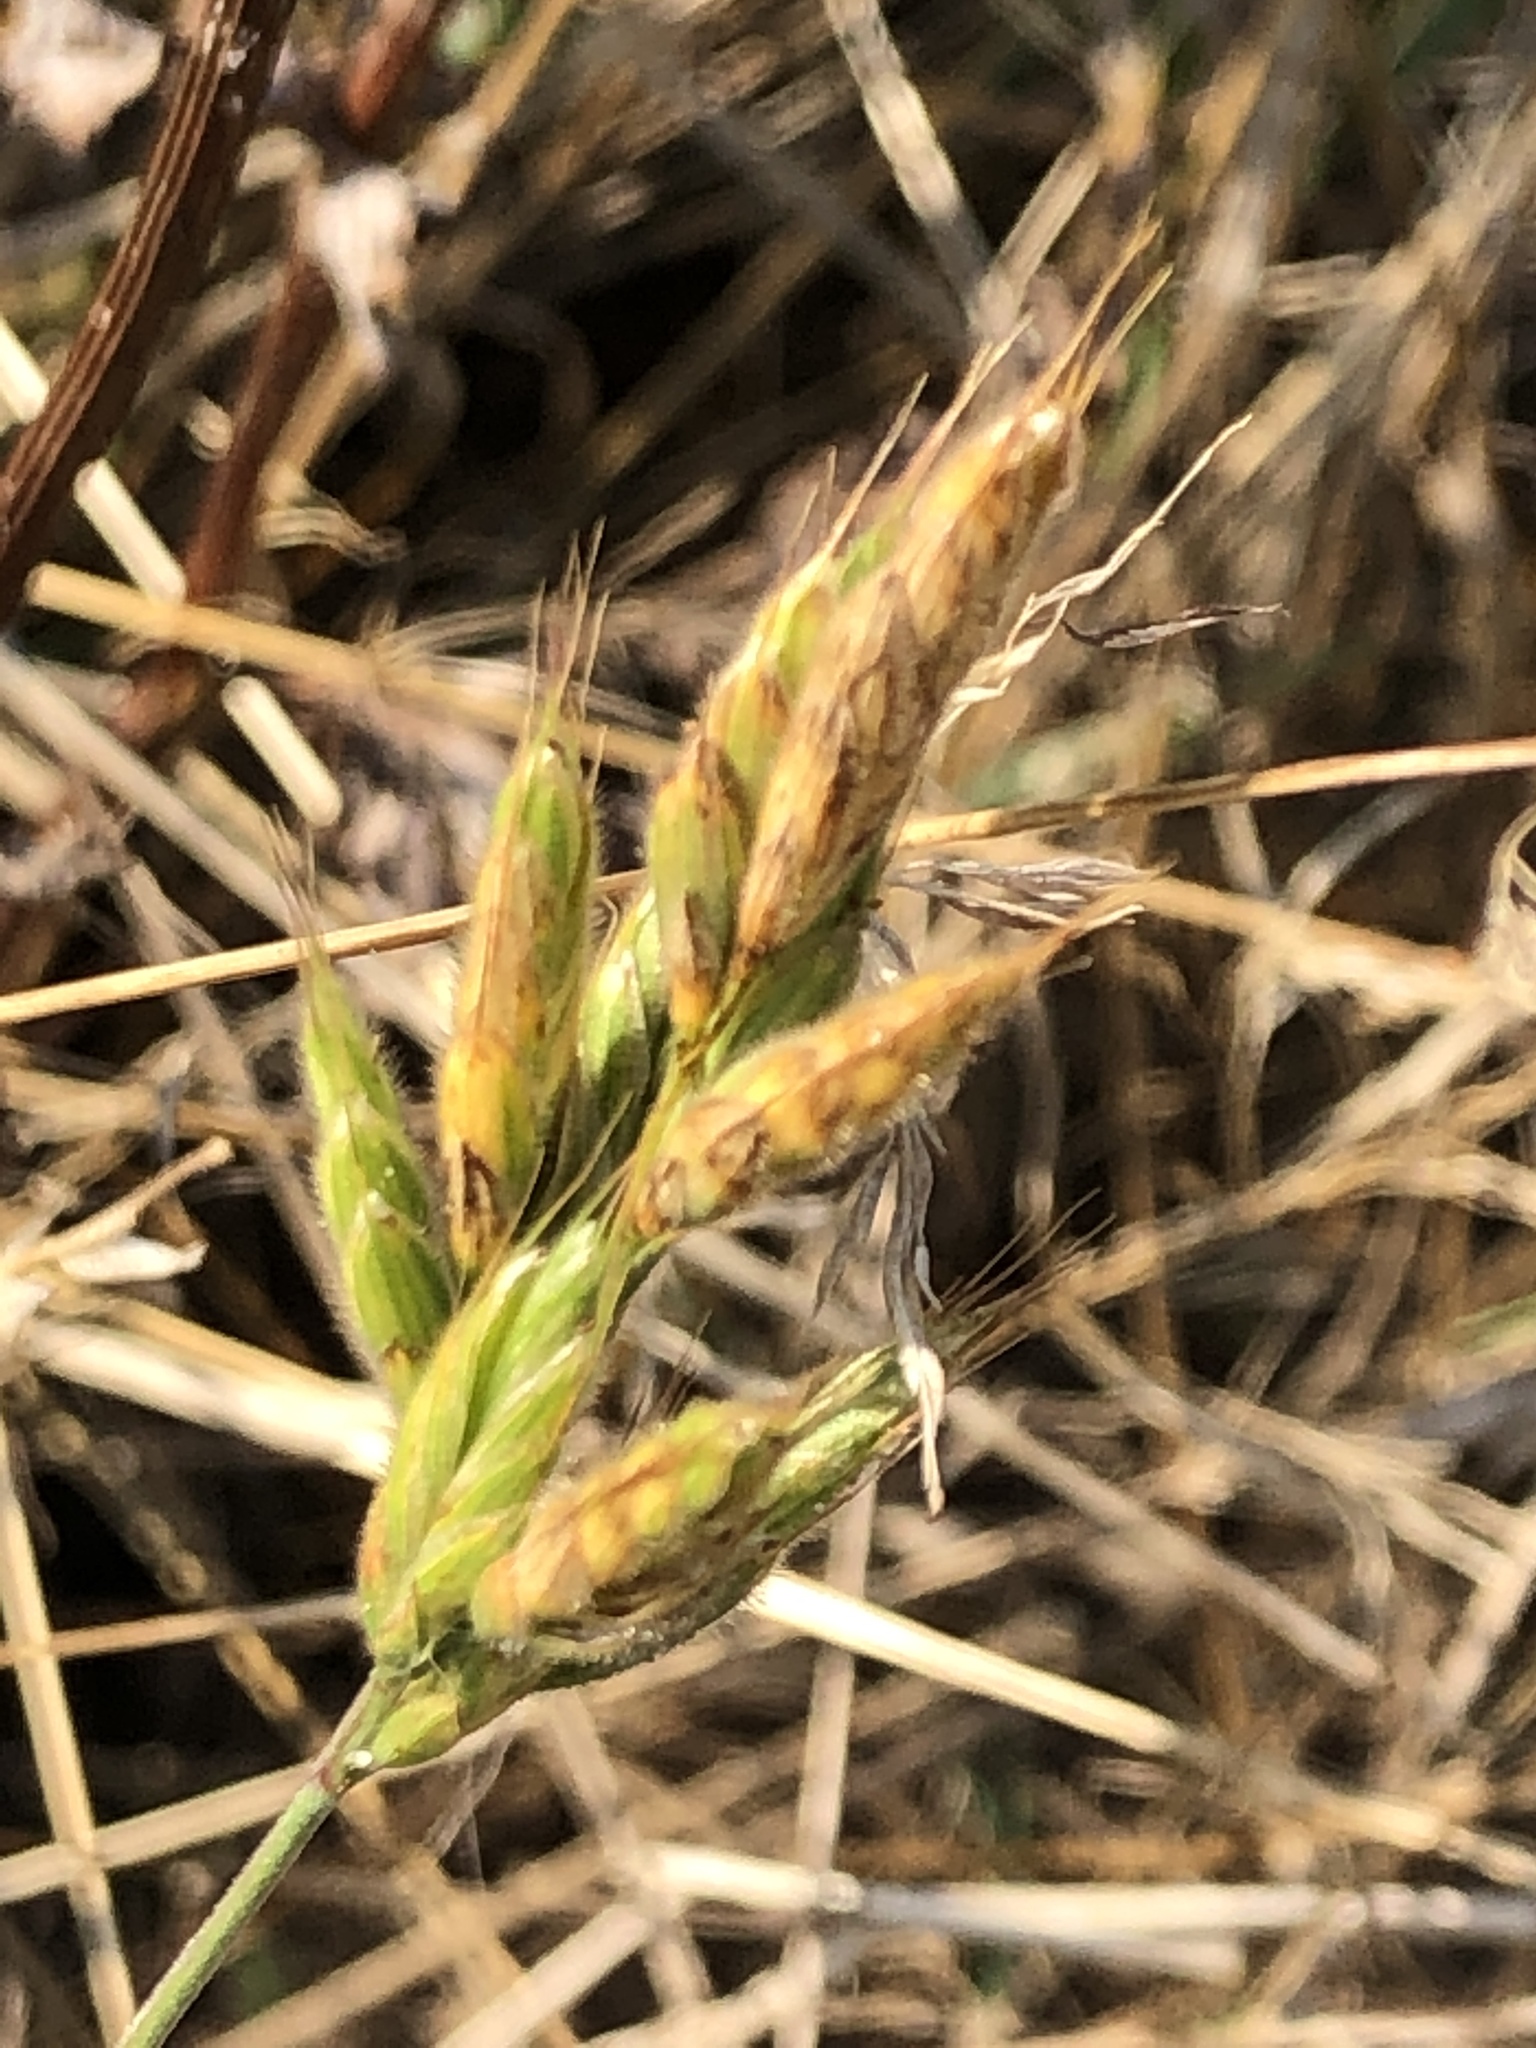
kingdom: Plantae
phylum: Tracheophyta
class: Liliopsida
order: Poales
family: Poaceae
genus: Bromus
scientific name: Bromus hordeaceus
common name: Soft brome
